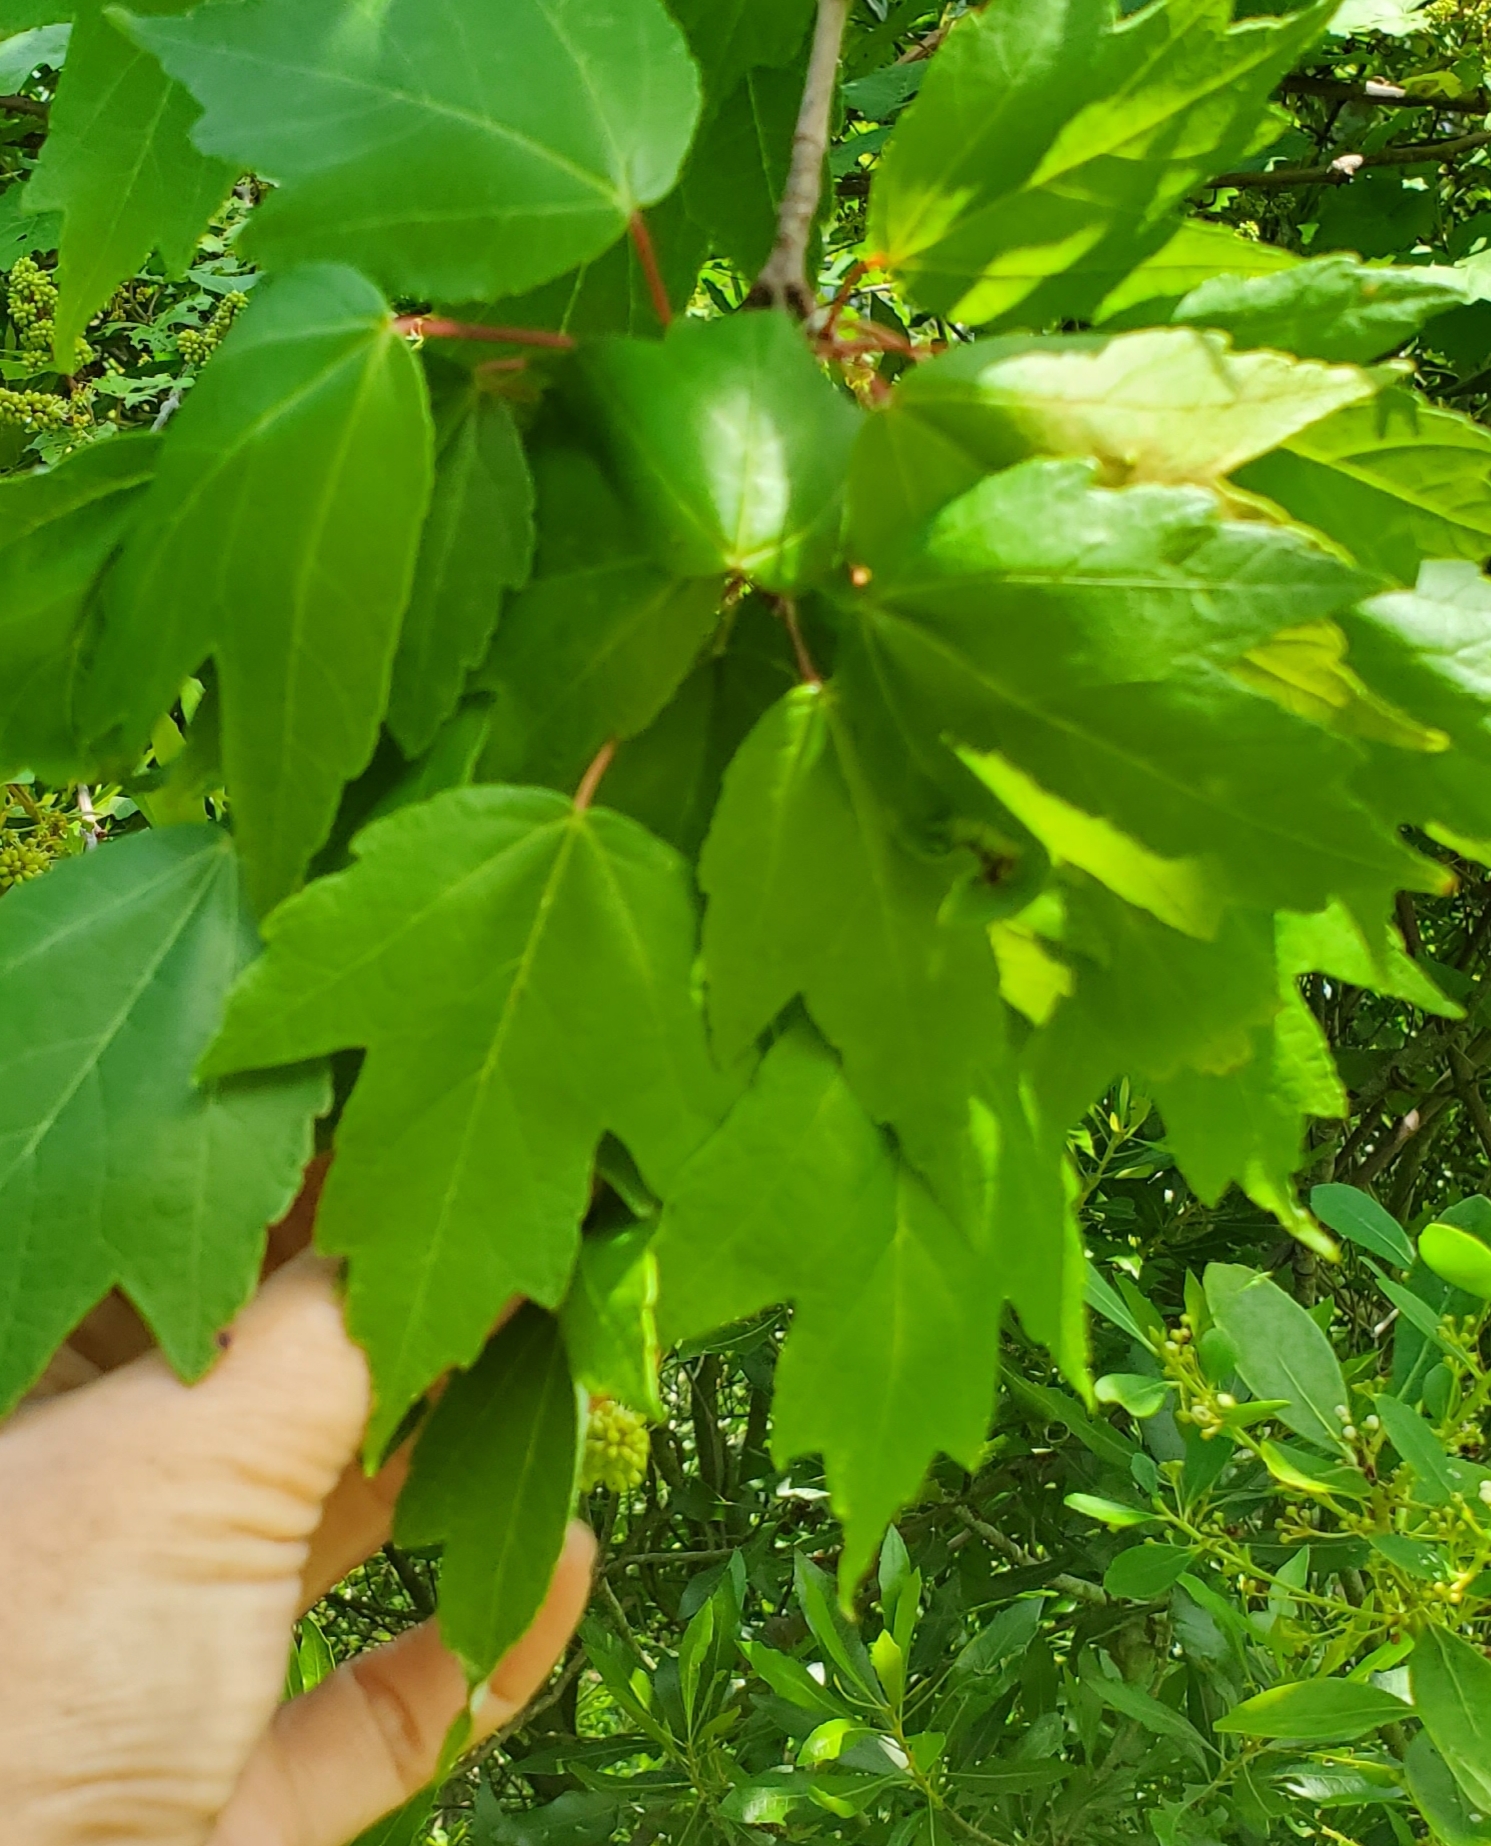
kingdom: Plantae
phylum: Tracheophyta
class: Magnoliopsida
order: Sapindales
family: Sapindaceae
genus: Acer
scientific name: Acer rubrum
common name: Red maple
